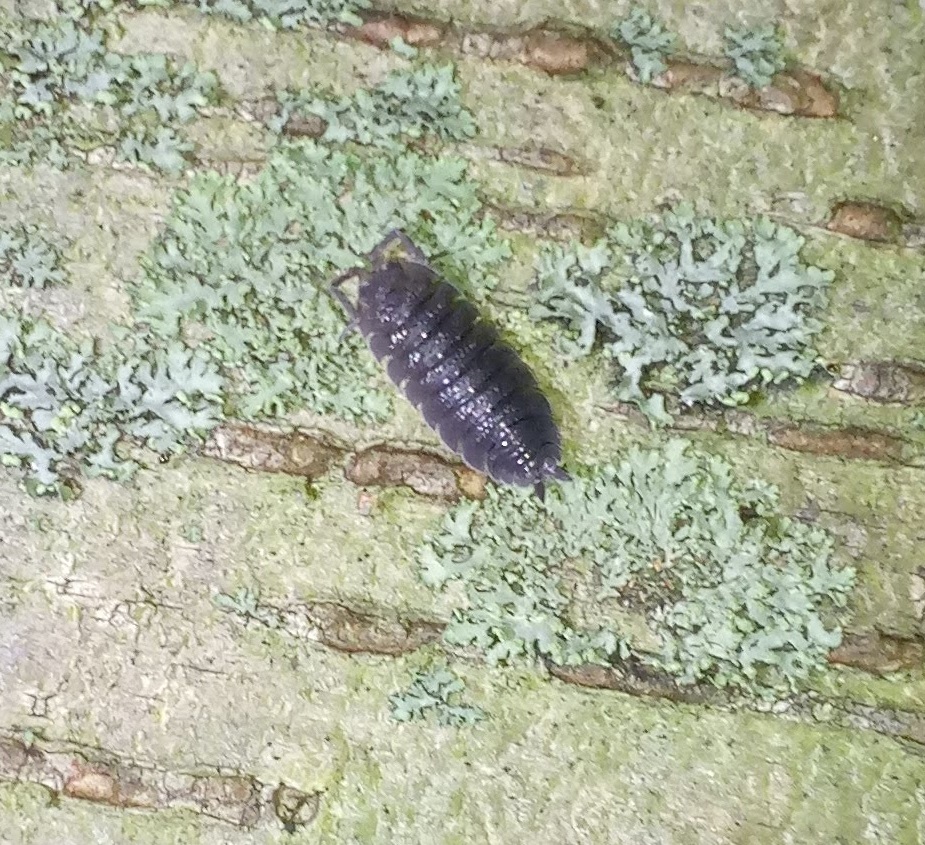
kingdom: Animalia
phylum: Arthropoda
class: Malacostraca
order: Isopoda
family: Porcellionidae
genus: Porcellio
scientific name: Porcellio scaber
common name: Common rough woodlouse
